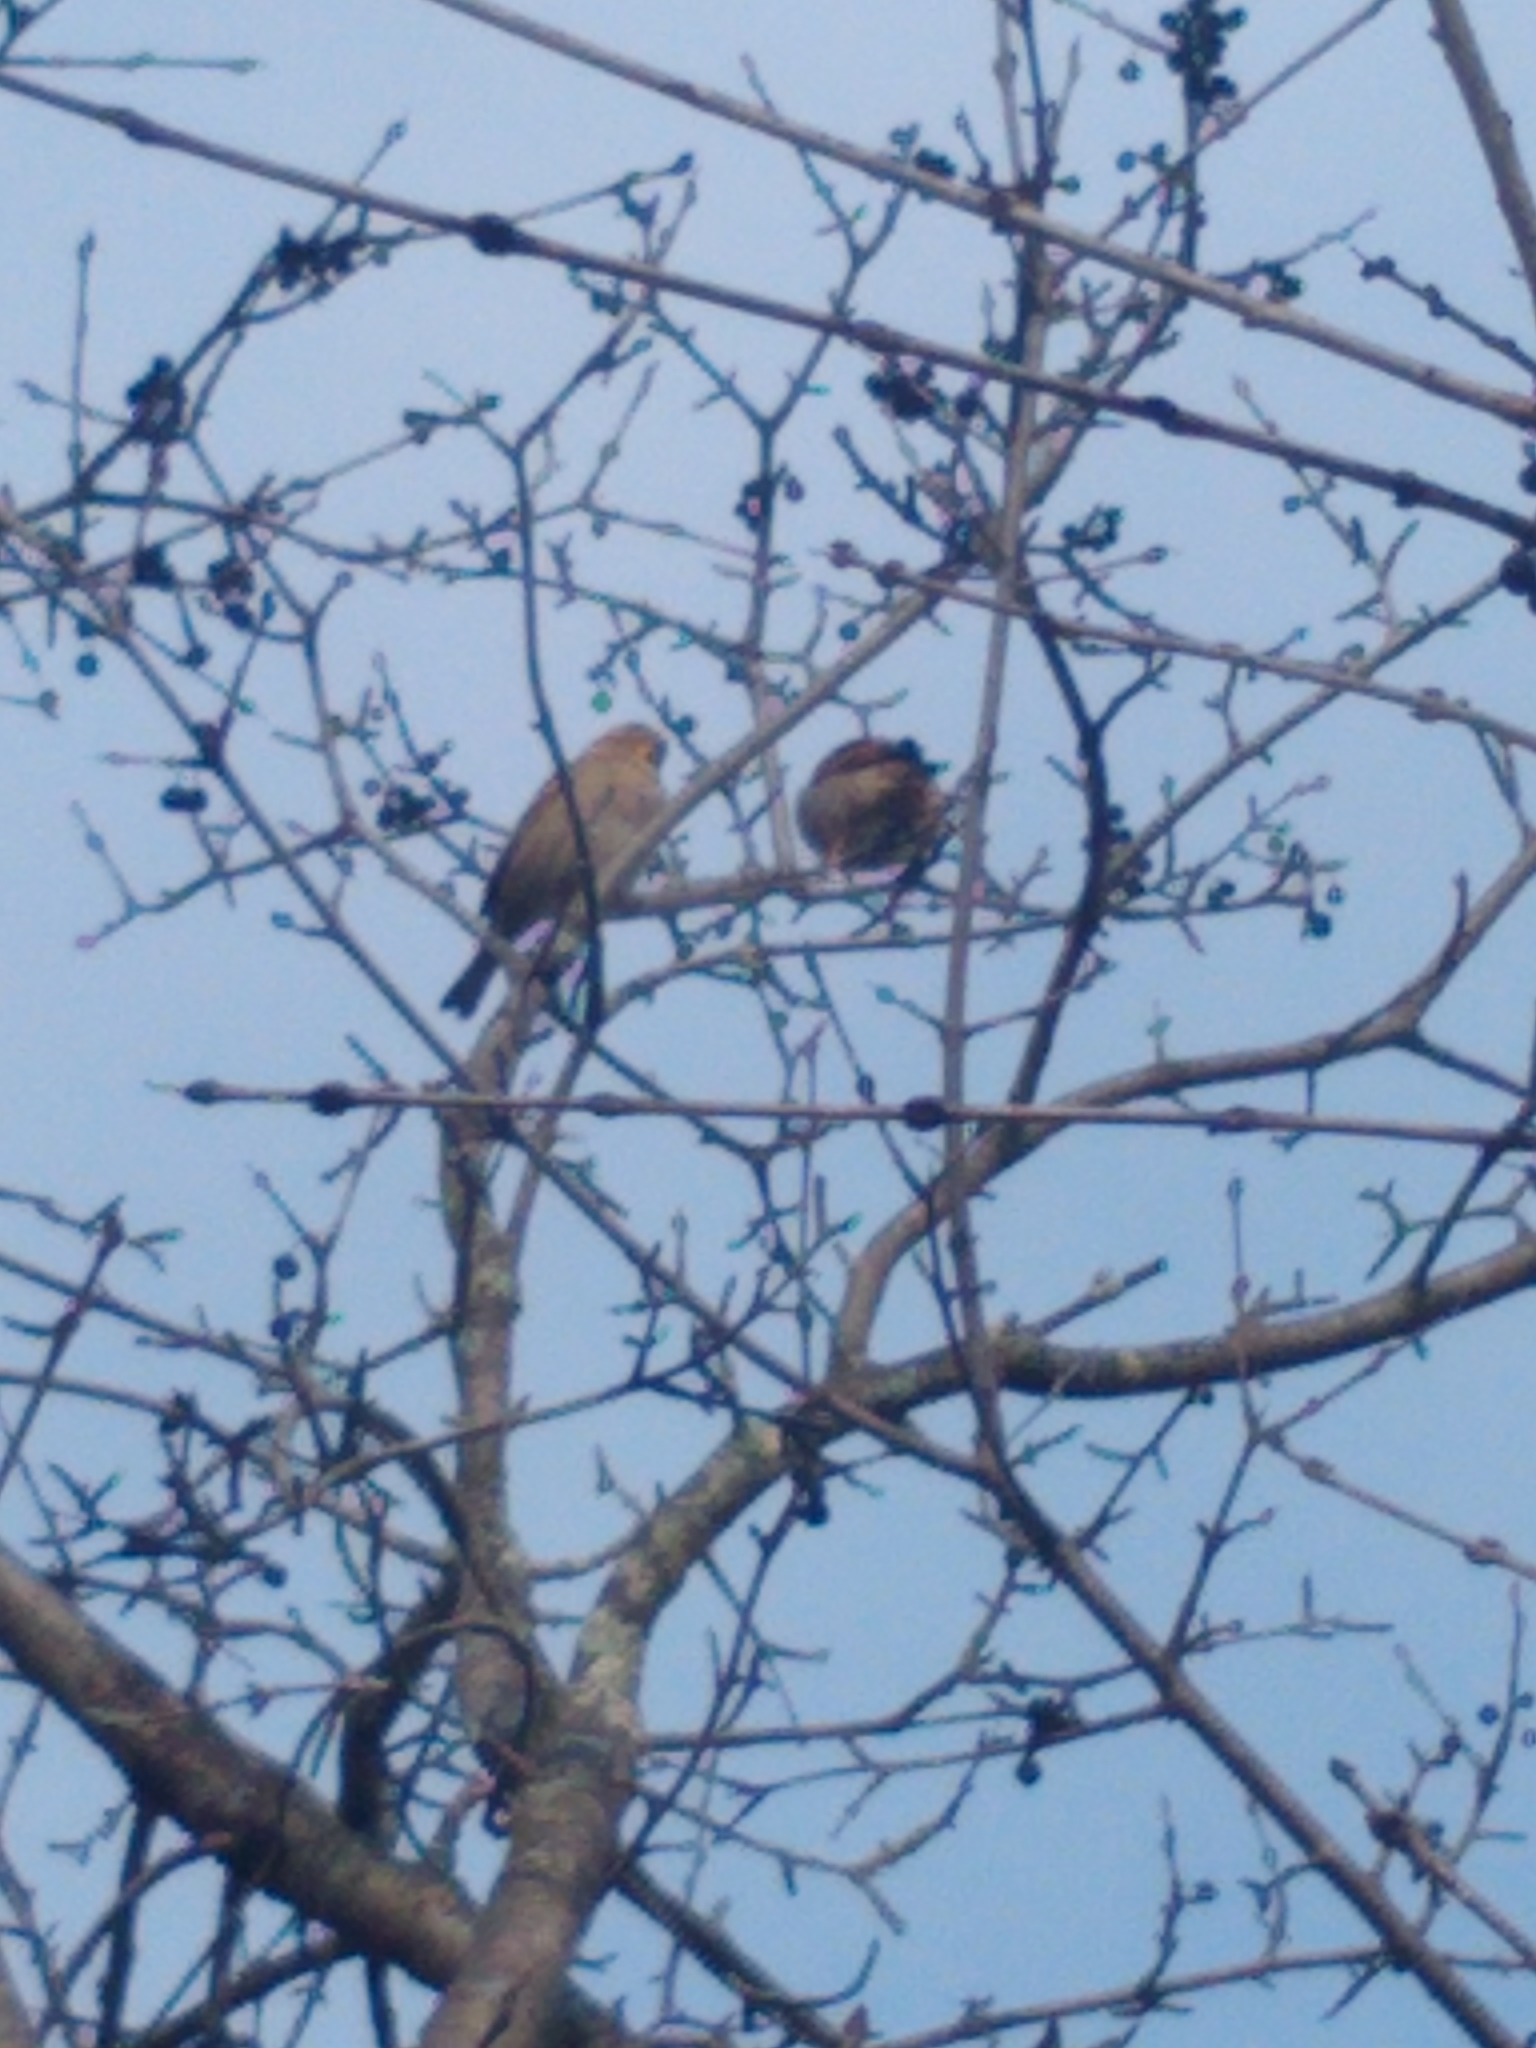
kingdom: Animalia
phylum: Chordata
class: Aves
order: Passeriformes
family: Passeridae
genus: Passer
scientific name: Passer domesticus
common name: House sparrow
